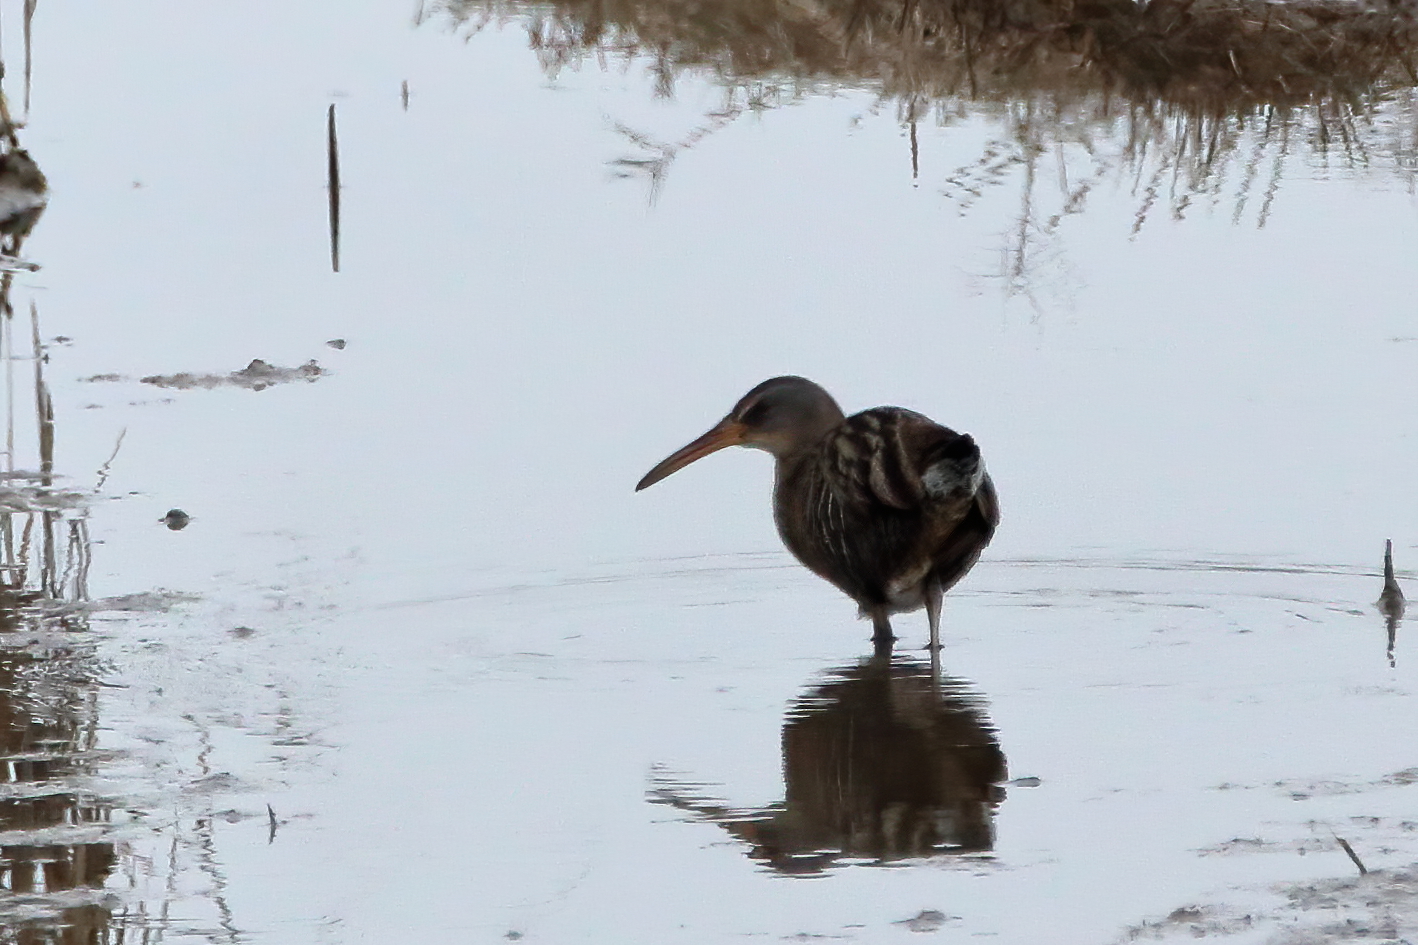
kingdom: Animalia
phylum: Chordata
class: Aves
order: Gruiformes
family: Rallidae
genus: Rallus
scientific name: Rallus crepitans
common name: Clapper rail
